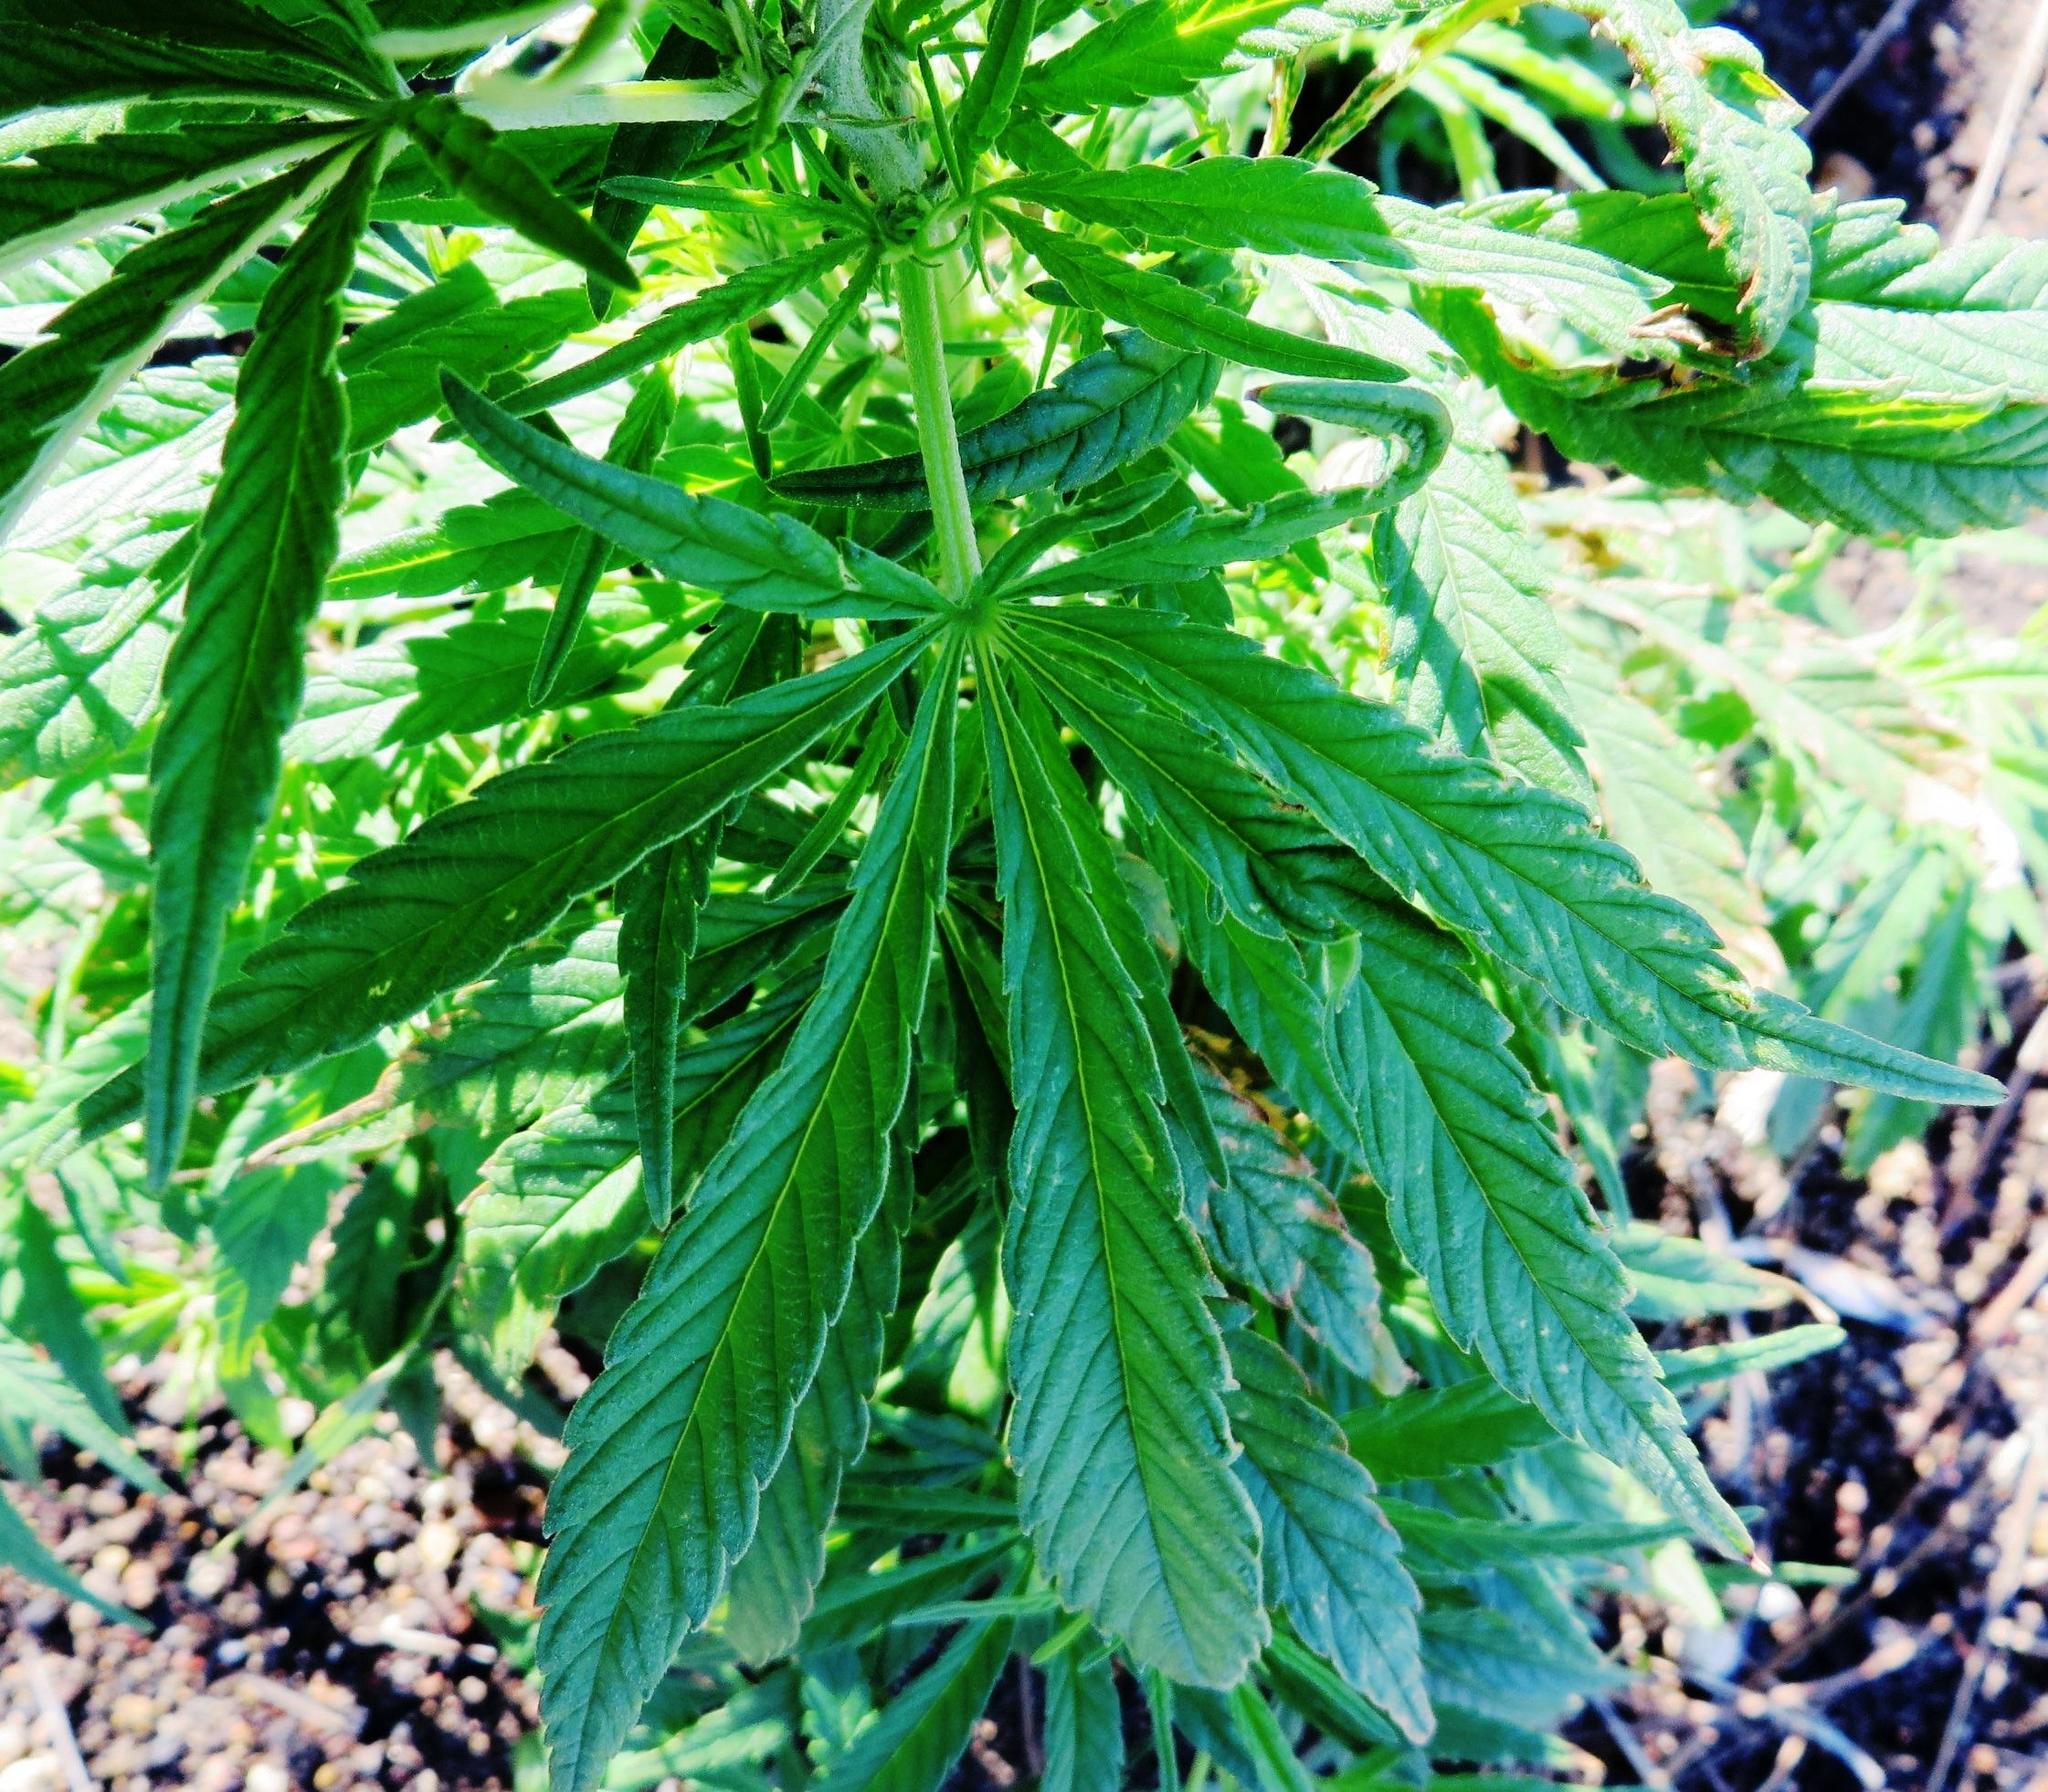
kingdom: Plantae
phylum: Tracheophyta
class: Magnoliopsida
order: Rosales
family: Cannabaceae
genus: Cannabis
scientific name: Cannabis sativa
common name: Hemp
